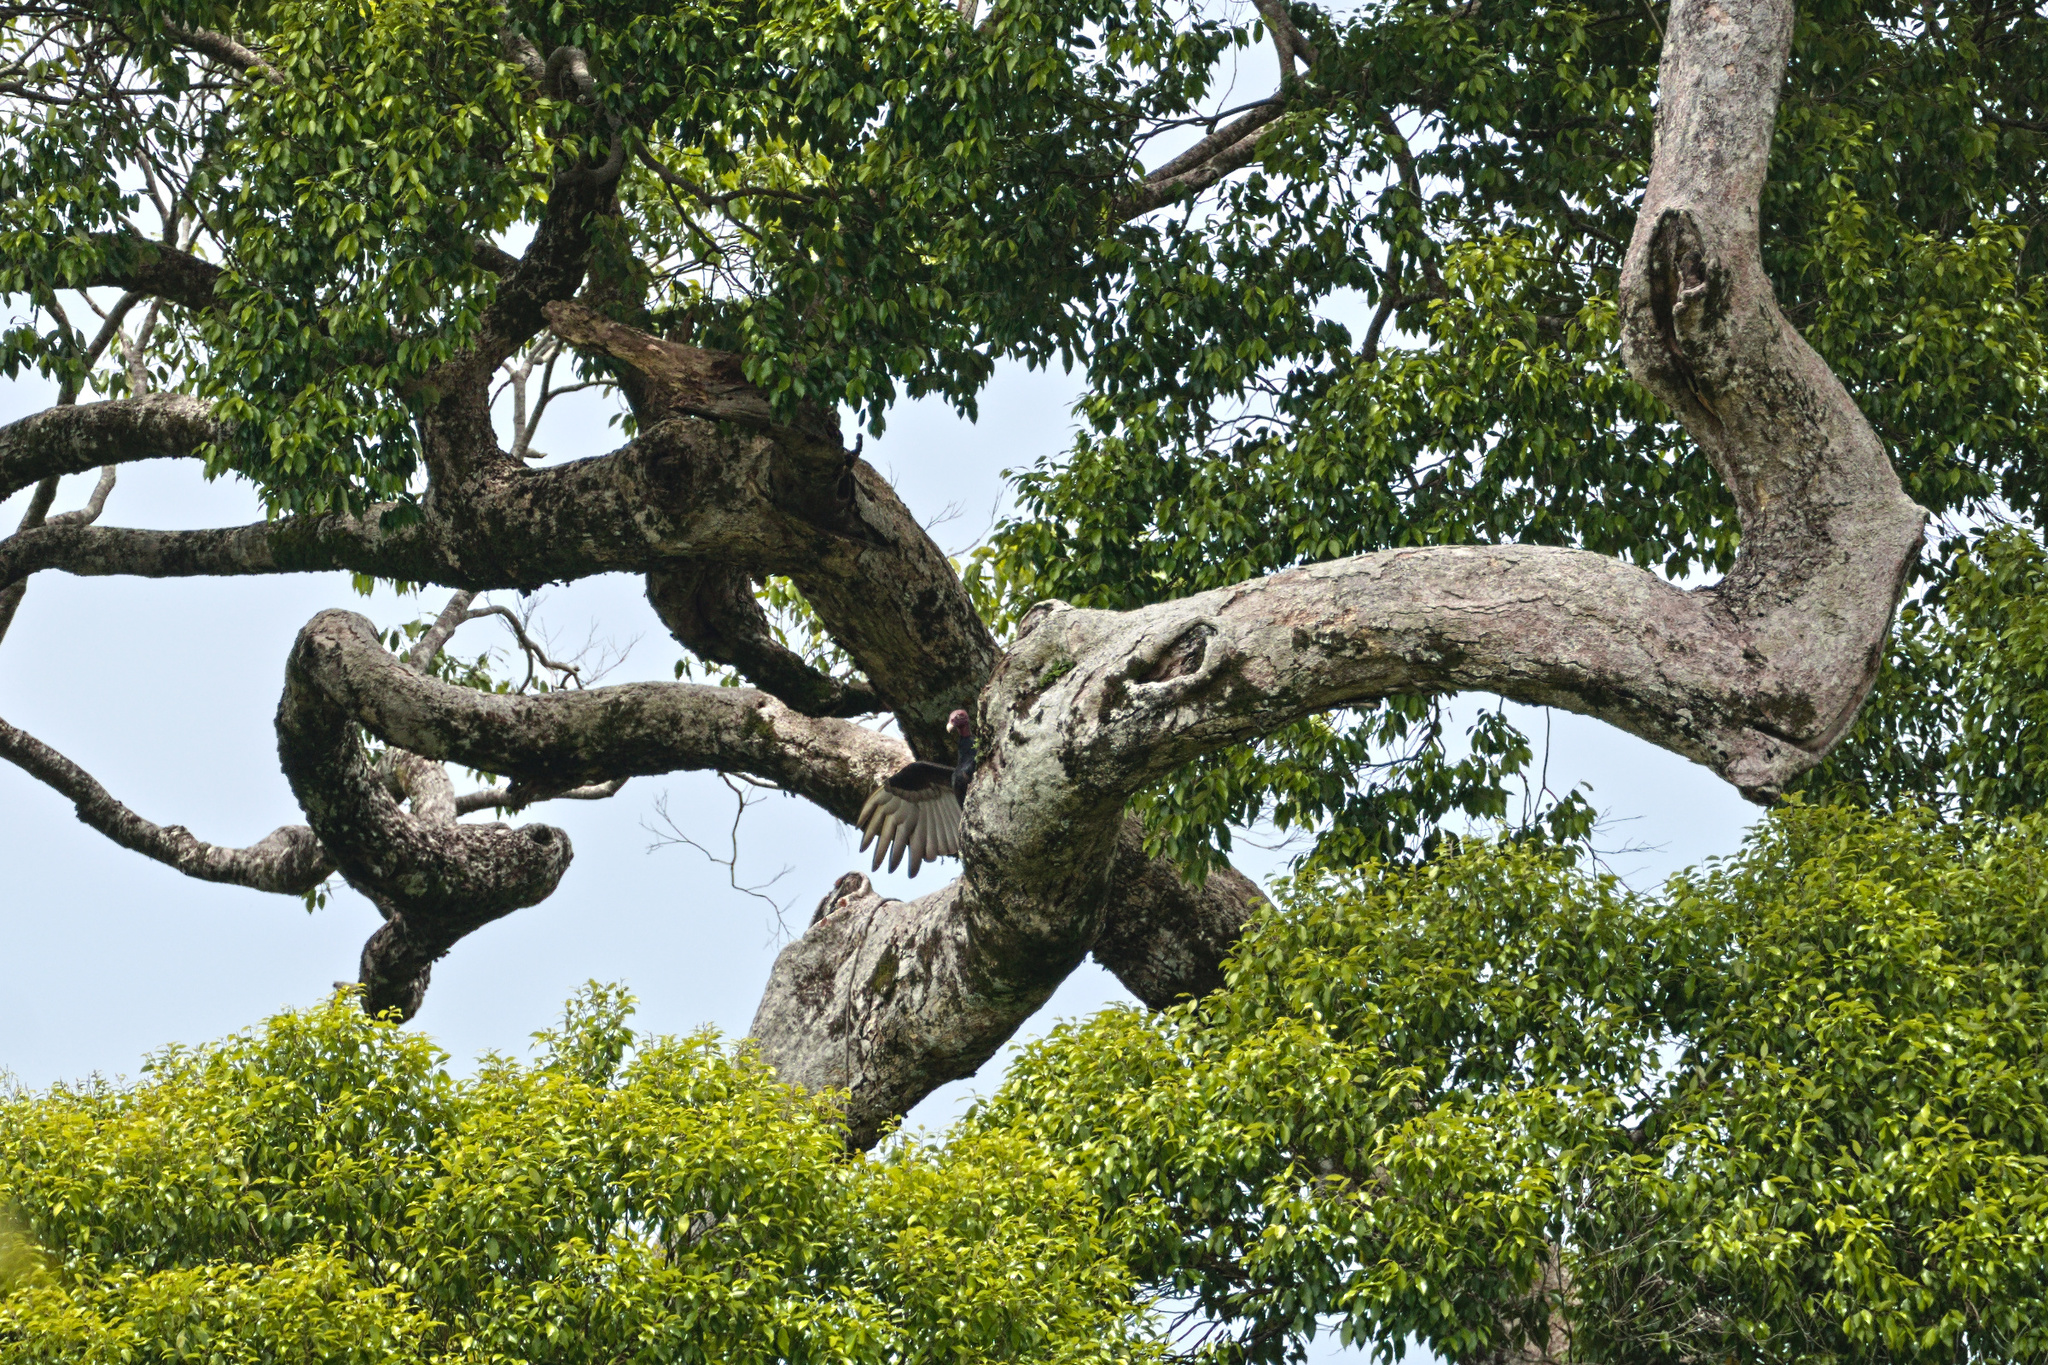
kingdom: Animalia
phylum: Chordata
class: Aves
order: Accipitriformes
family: Cathartidae
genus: Cathartes
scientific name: Cathartes aura
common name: Turkey vulture
